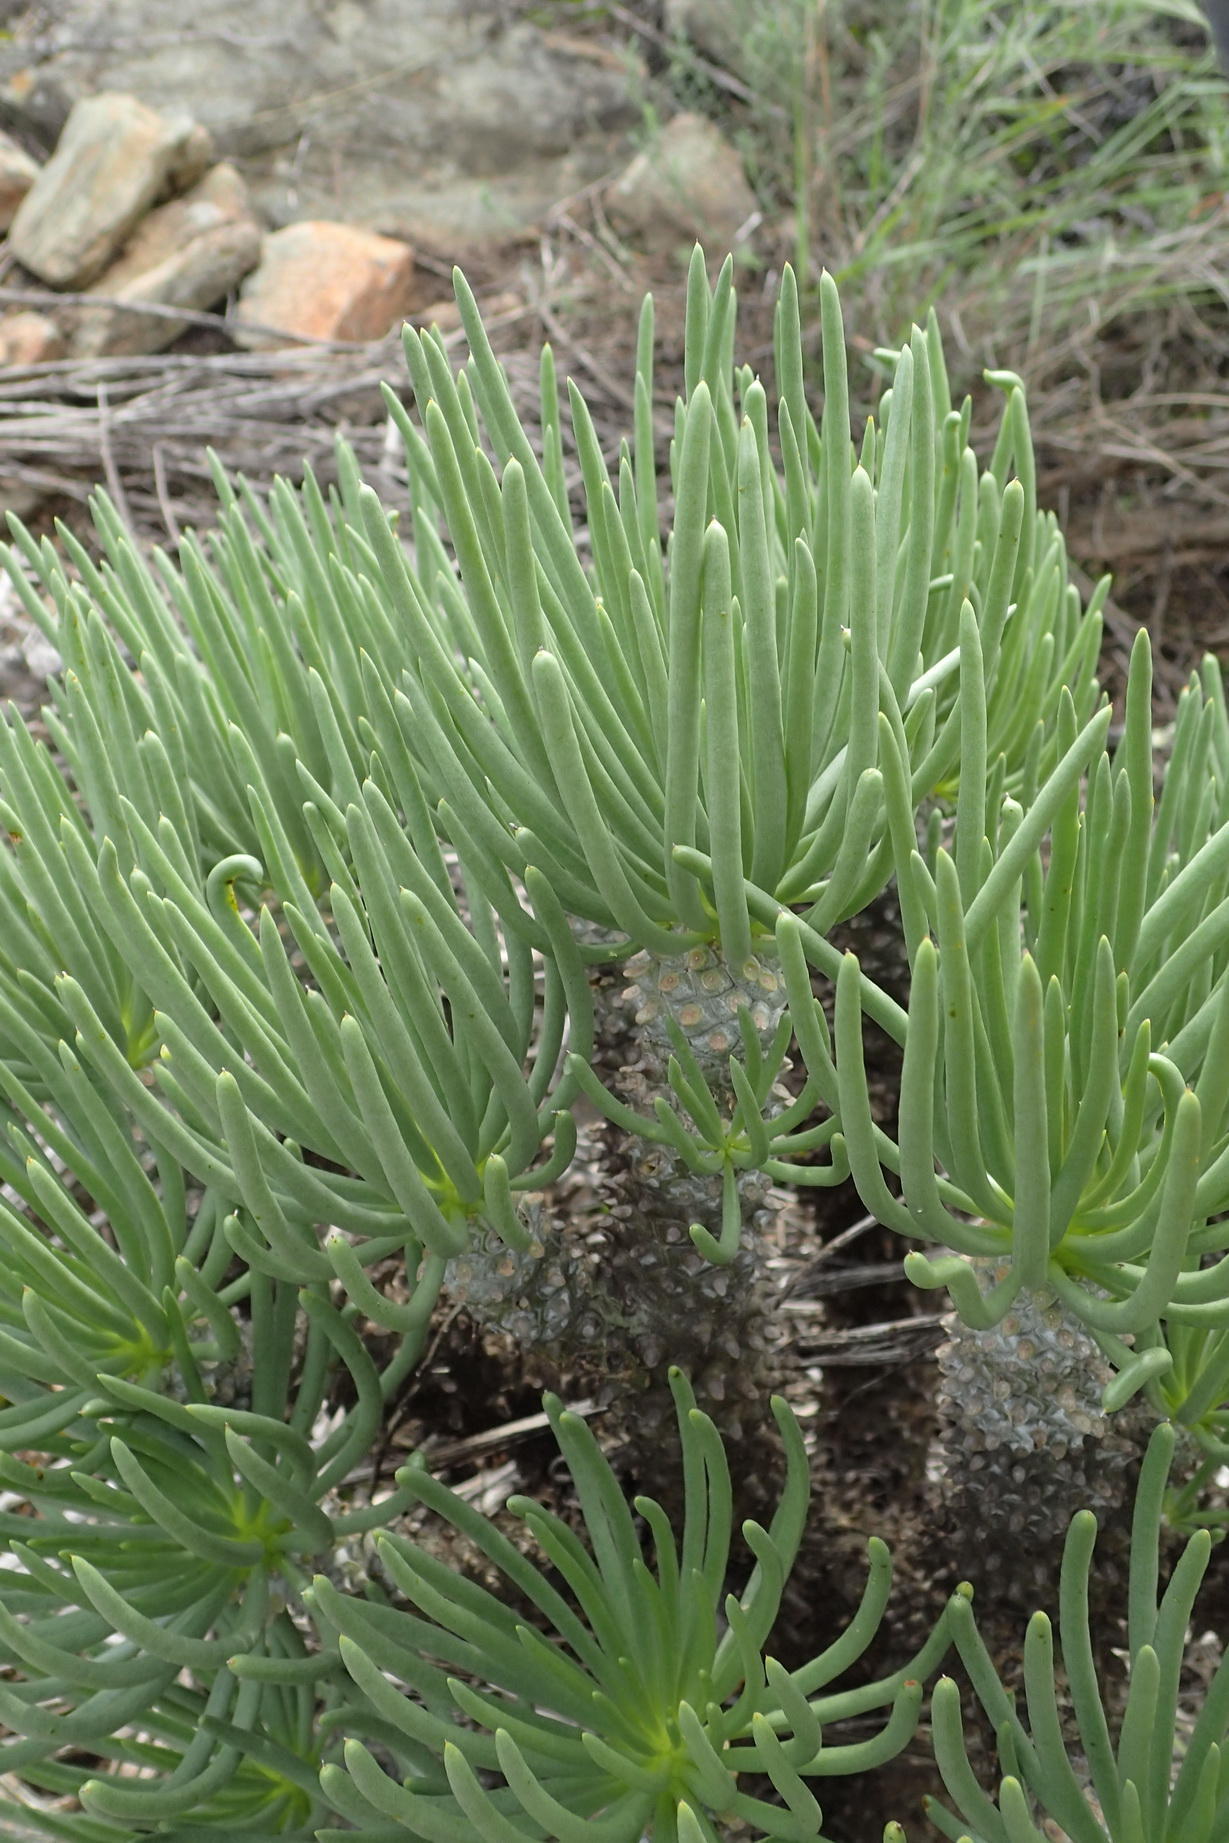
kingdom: Plantae
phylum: Tracheophyta
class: Magnoliopsida
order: Saxifragales
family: Crassulaceae
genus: Tylecodon
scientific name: Tylecodon cacaliodes
